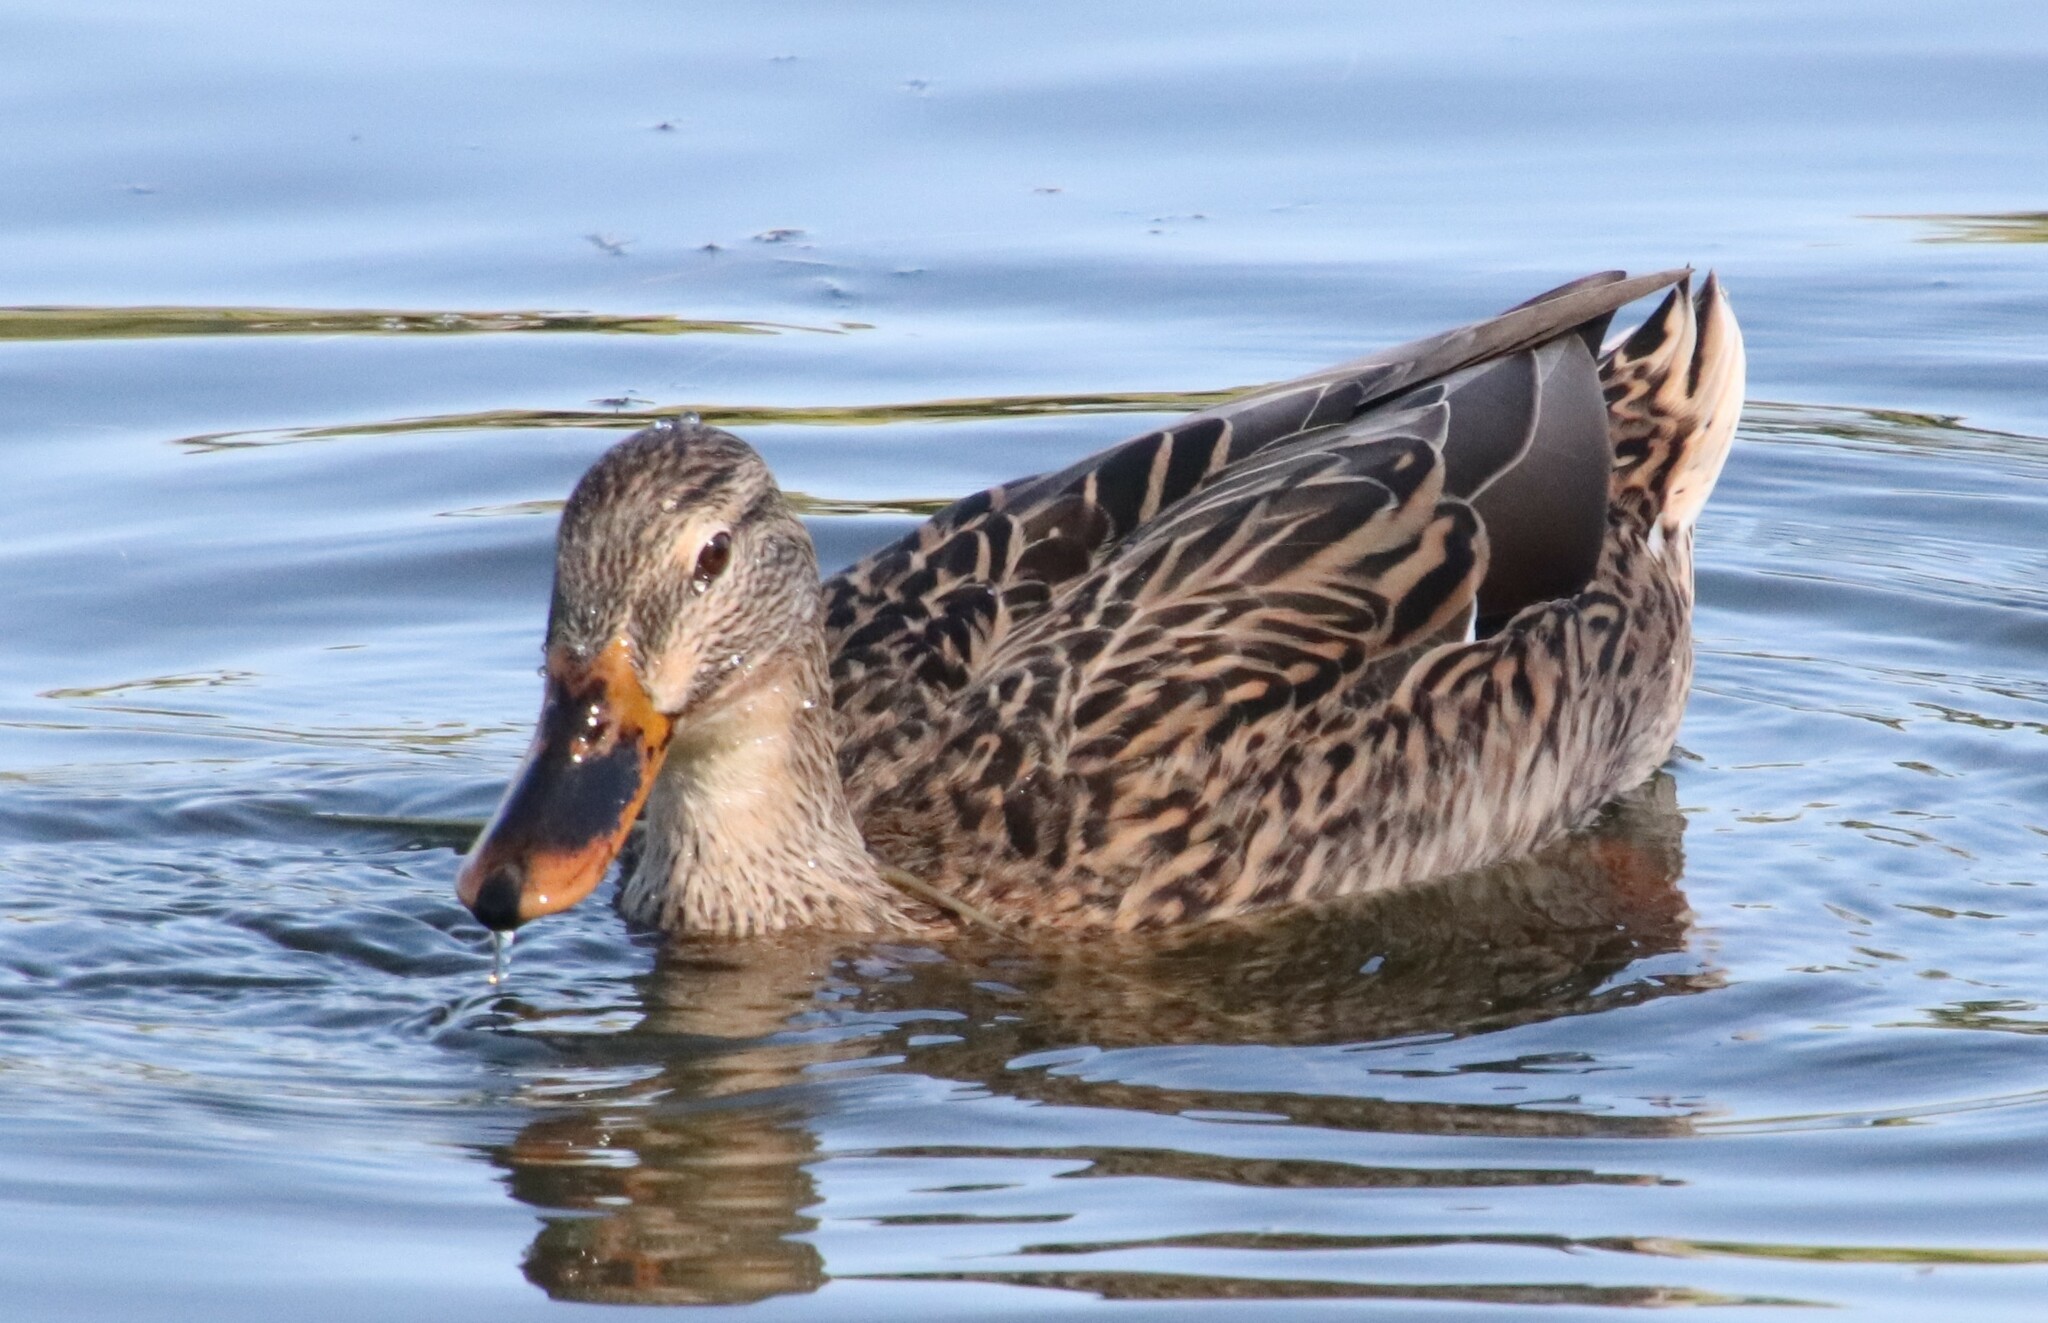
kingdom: Animalia
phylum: Chordata
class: Aves
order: Anseriformes
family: Anatidae
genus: Anas
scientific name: Anas platyrhynchos
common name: Mallard
